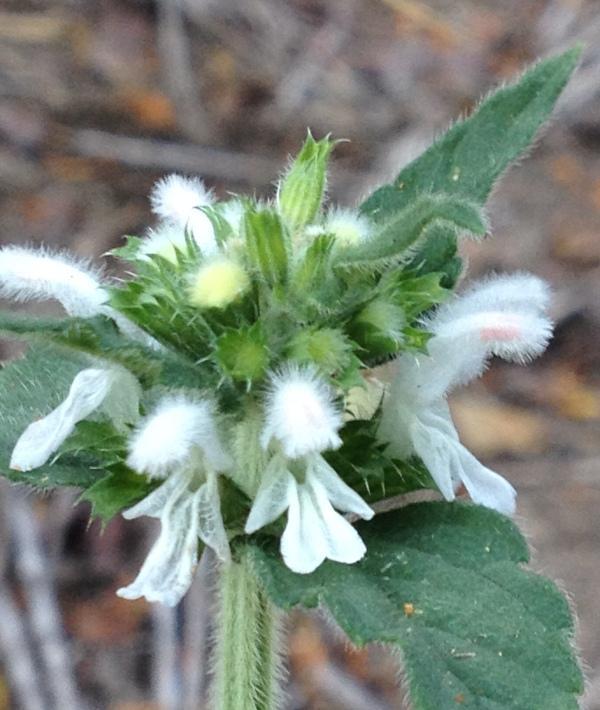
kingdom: Plantae
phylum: Tracheophyta
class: Magnoliopsida
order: Lamiales
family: Lamiaceae
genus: Leucas
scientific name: Leucas sexdentata
